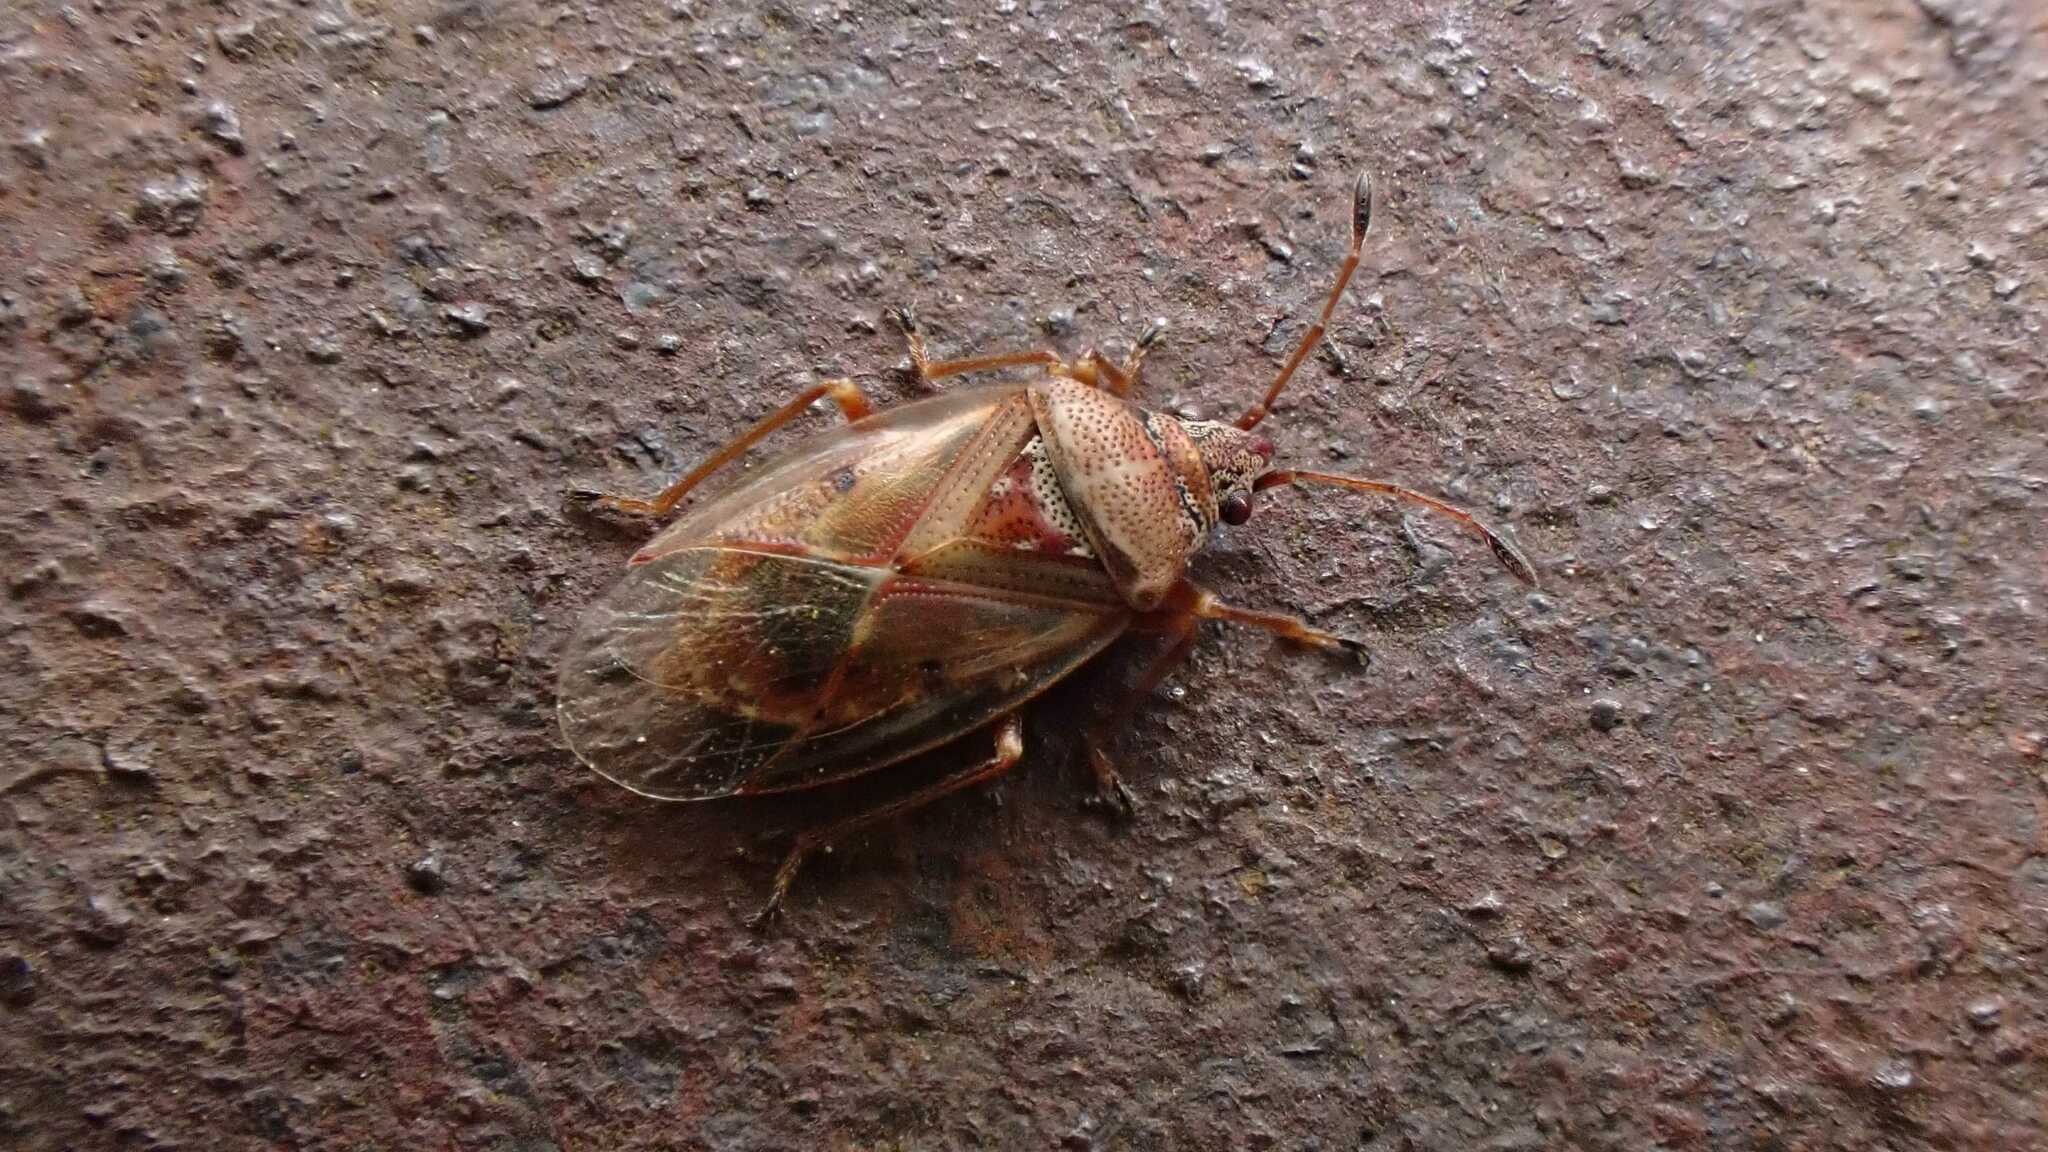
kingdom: Animalia
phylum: Arthropoda
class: Insecta
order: Hemiptera
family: Lygaeidae
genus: Kleidocerys
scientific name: Kleidocerys resedae
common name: Birch catkin bug
